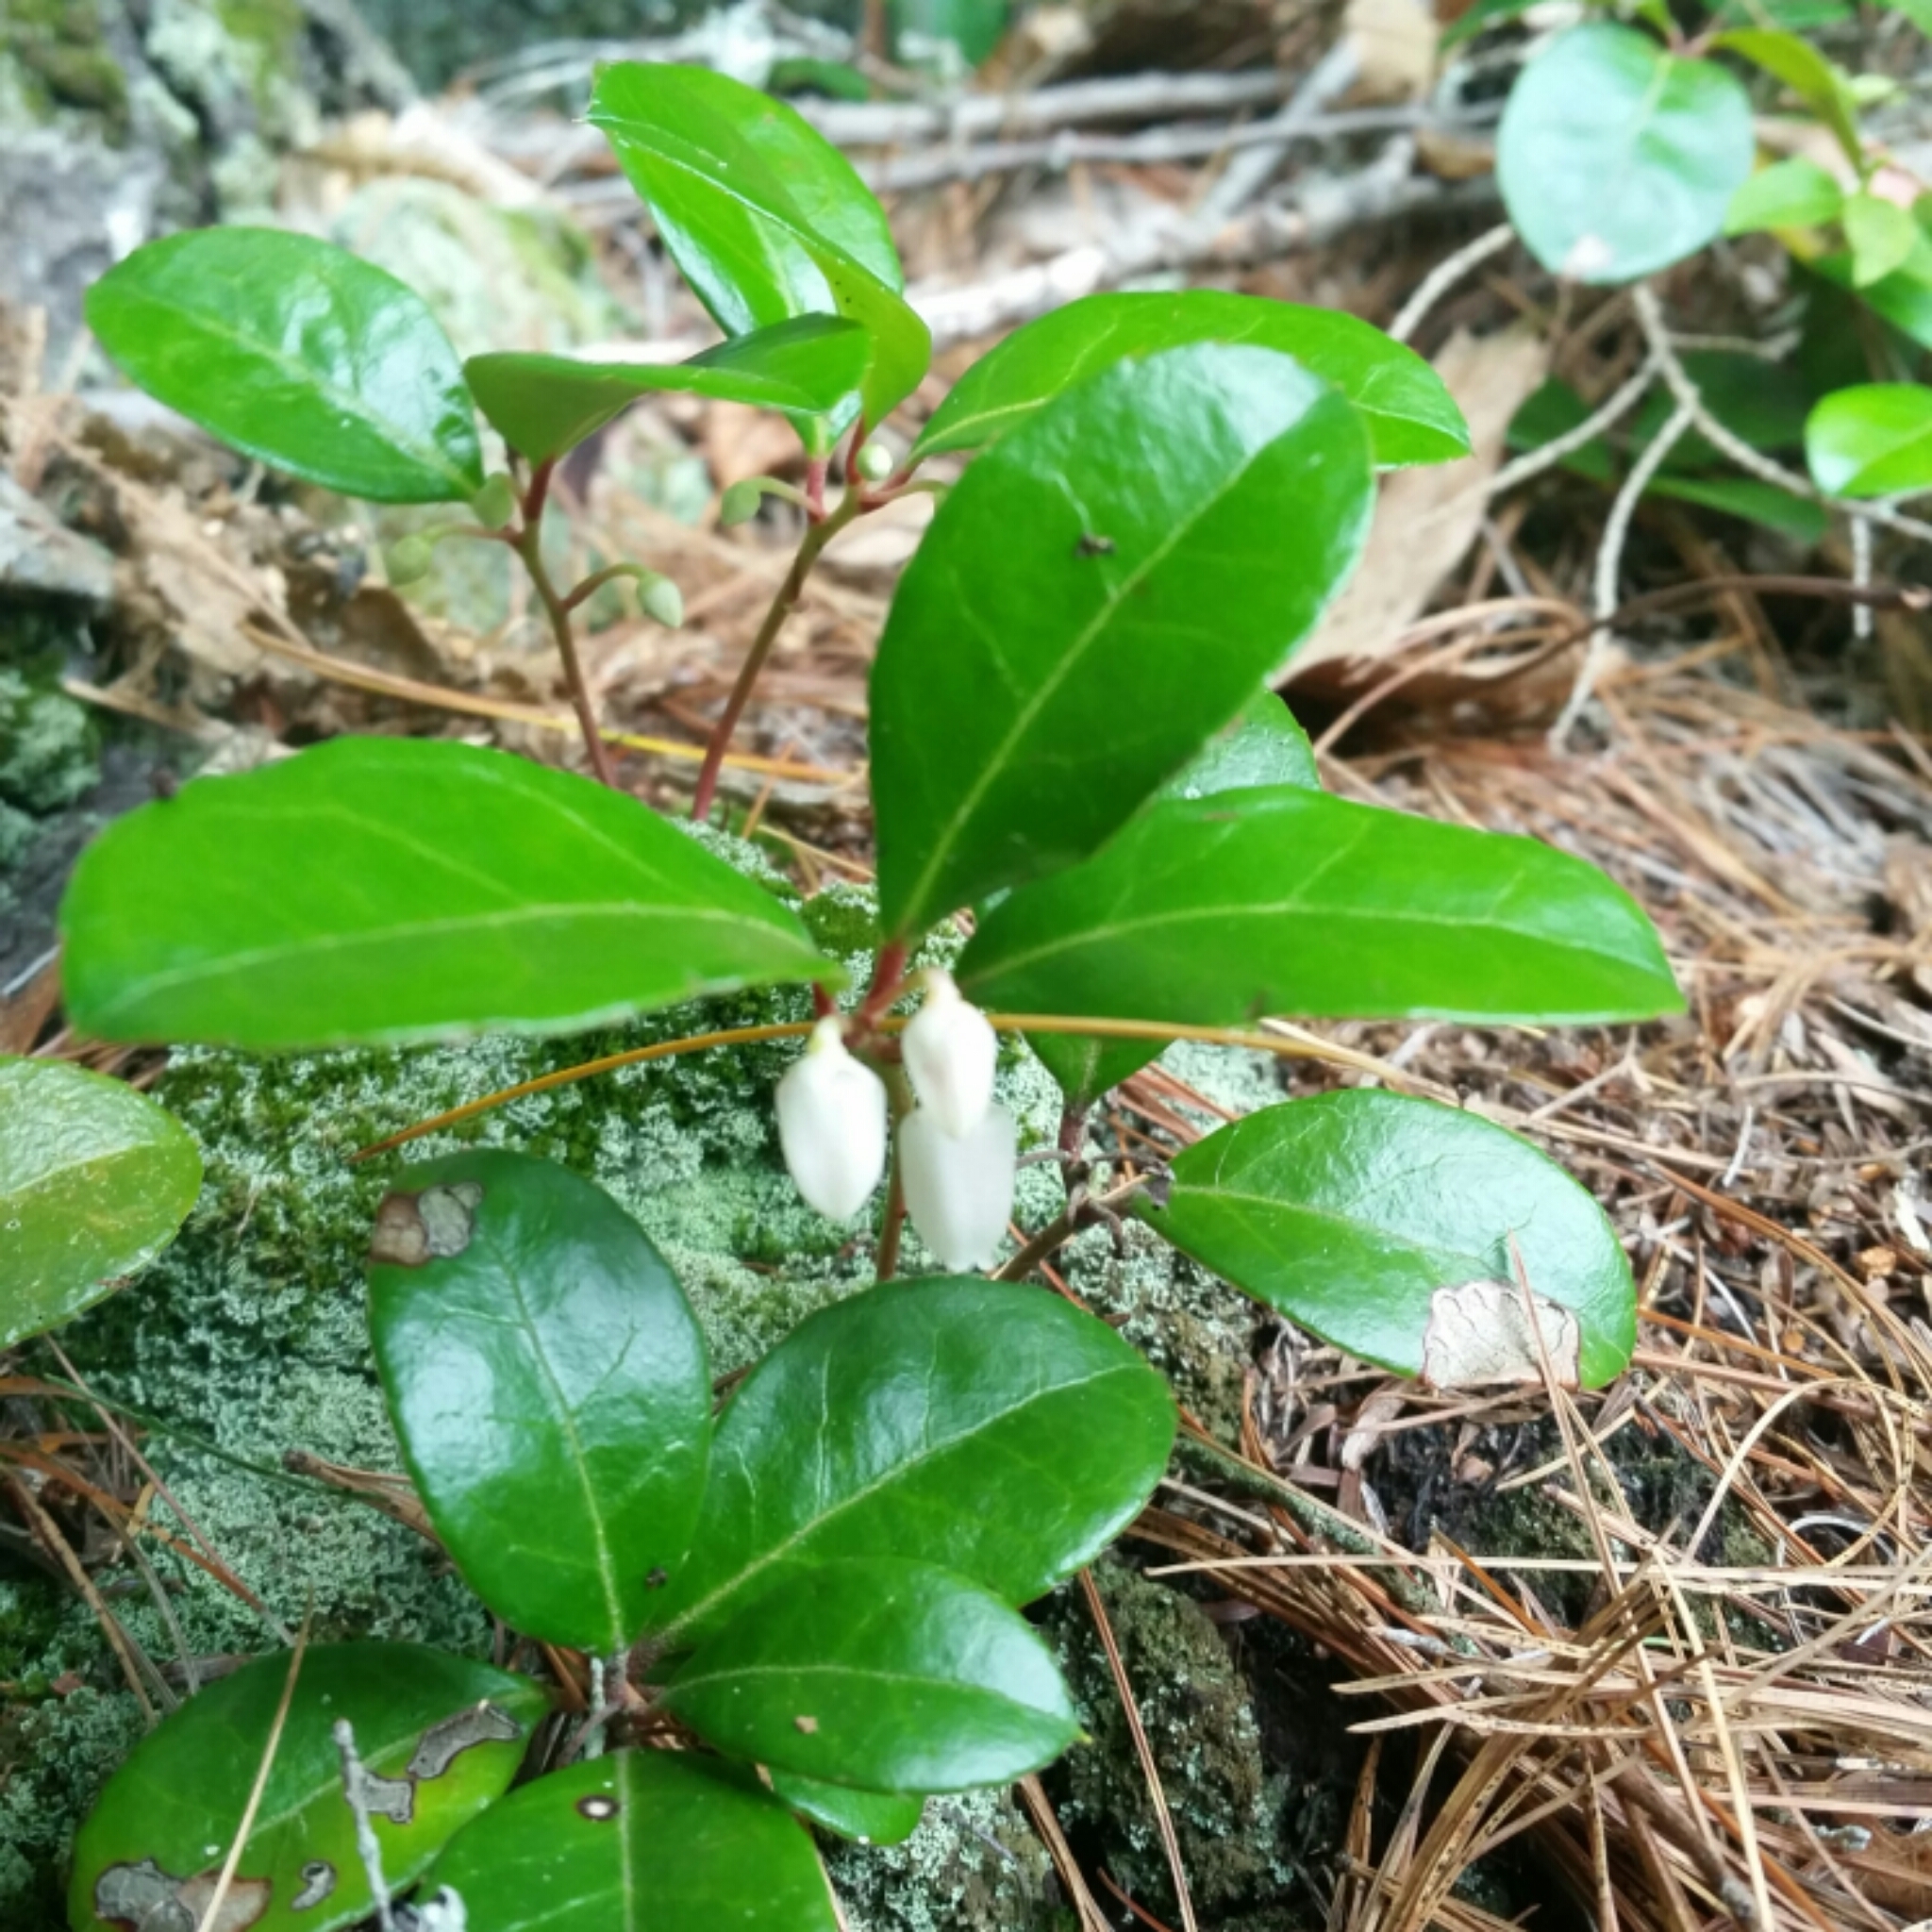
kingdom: Plantae
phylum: Tracheophyta
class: Magnoliopsida
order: Ericales
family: Ericaceae
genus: Gaultheria
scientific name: Gaultheria procumbens
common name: Checkerberry
